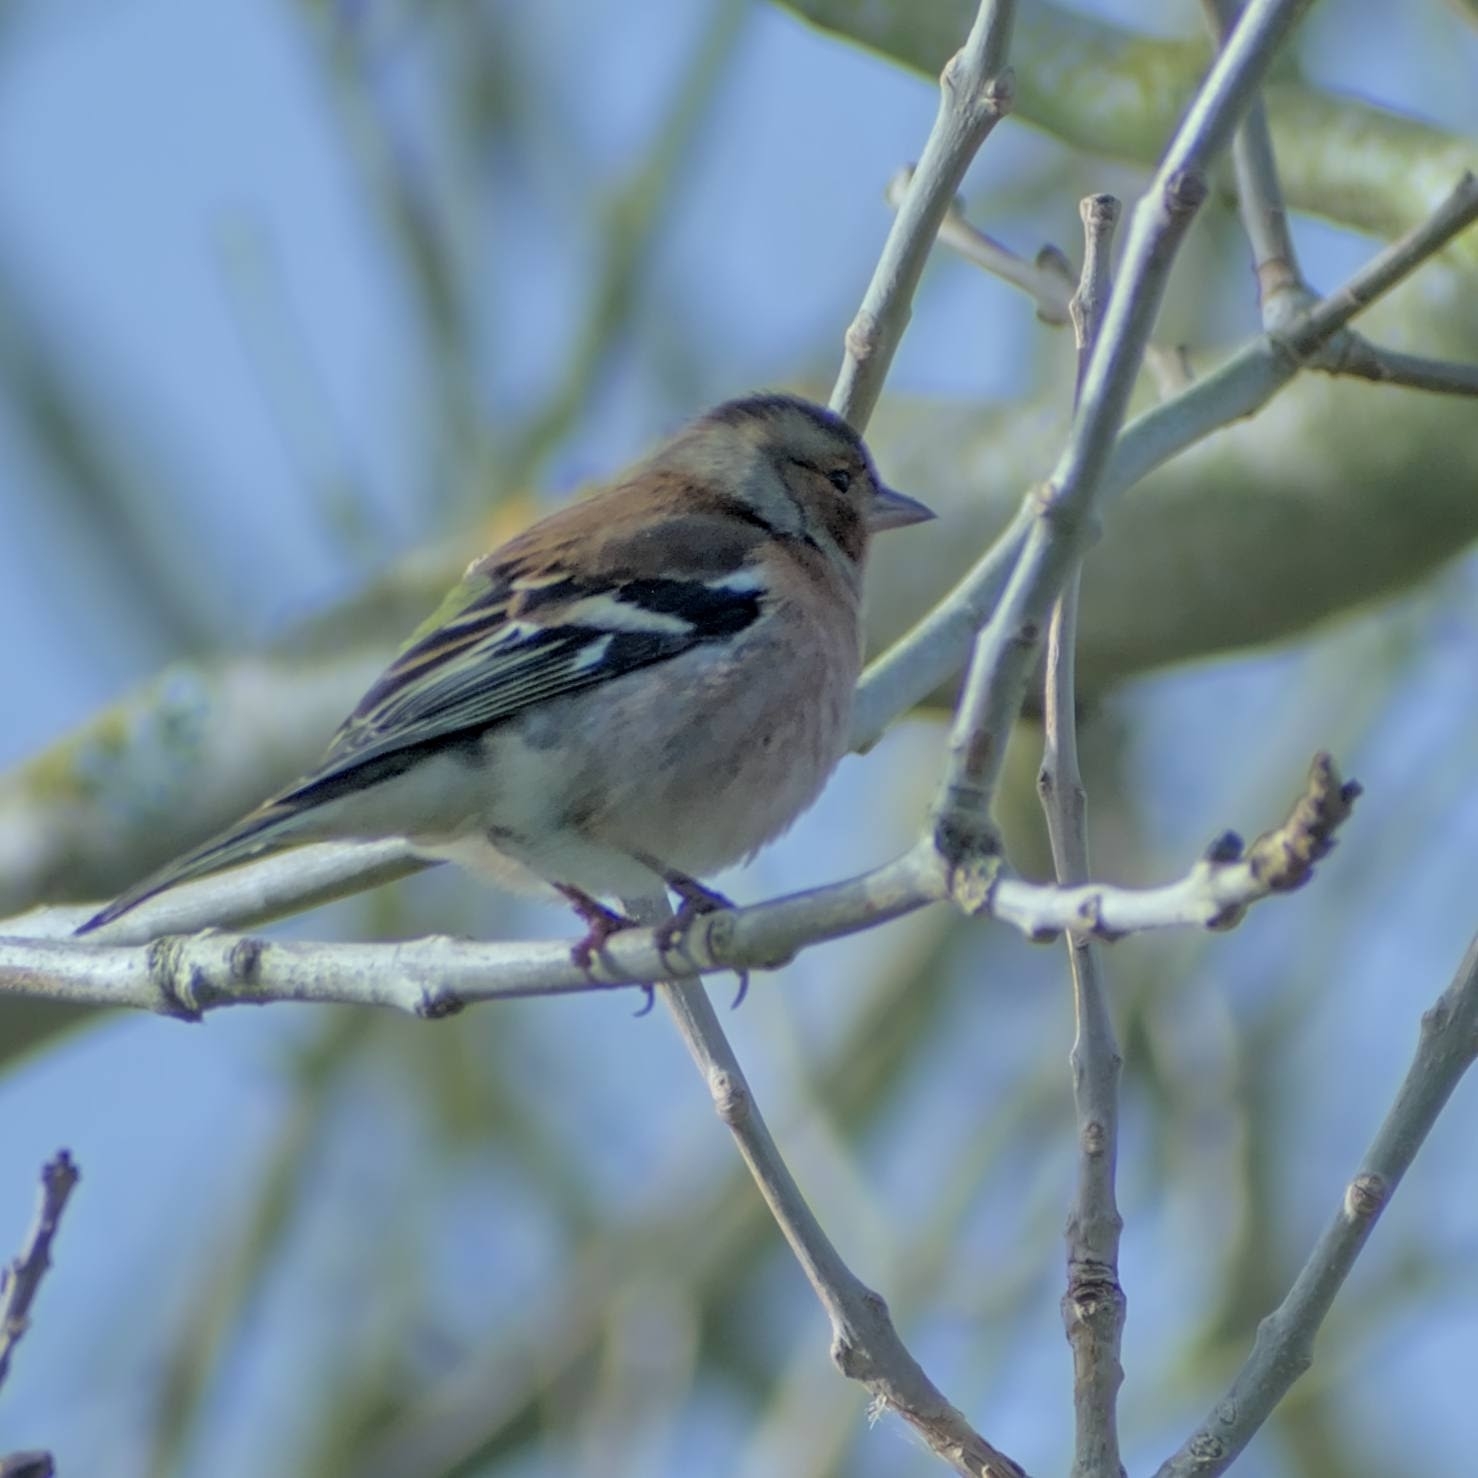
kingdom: Animalia
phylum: Chordata
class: Aves
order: Passeriformes
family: Fringillidae
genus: Fringilla
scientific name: Fringilla coelebs
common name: Common chaffinch
